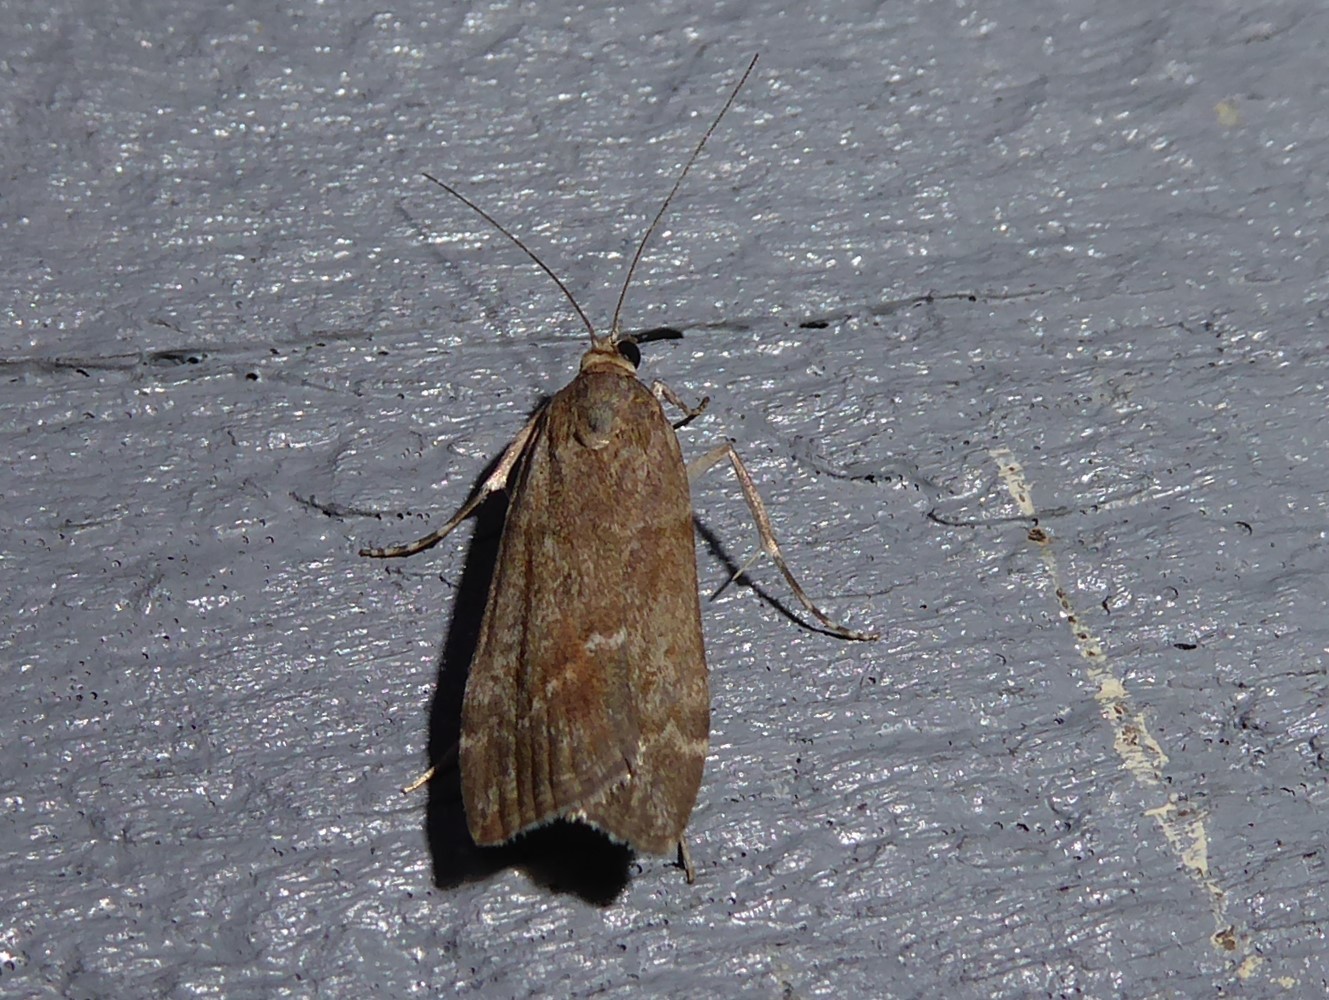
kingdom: Animalia
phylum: Arthropoda
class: Insecta
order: Lepidoptera
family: Crambidae
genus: Eudonia
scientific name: Eudonia submarginalis
